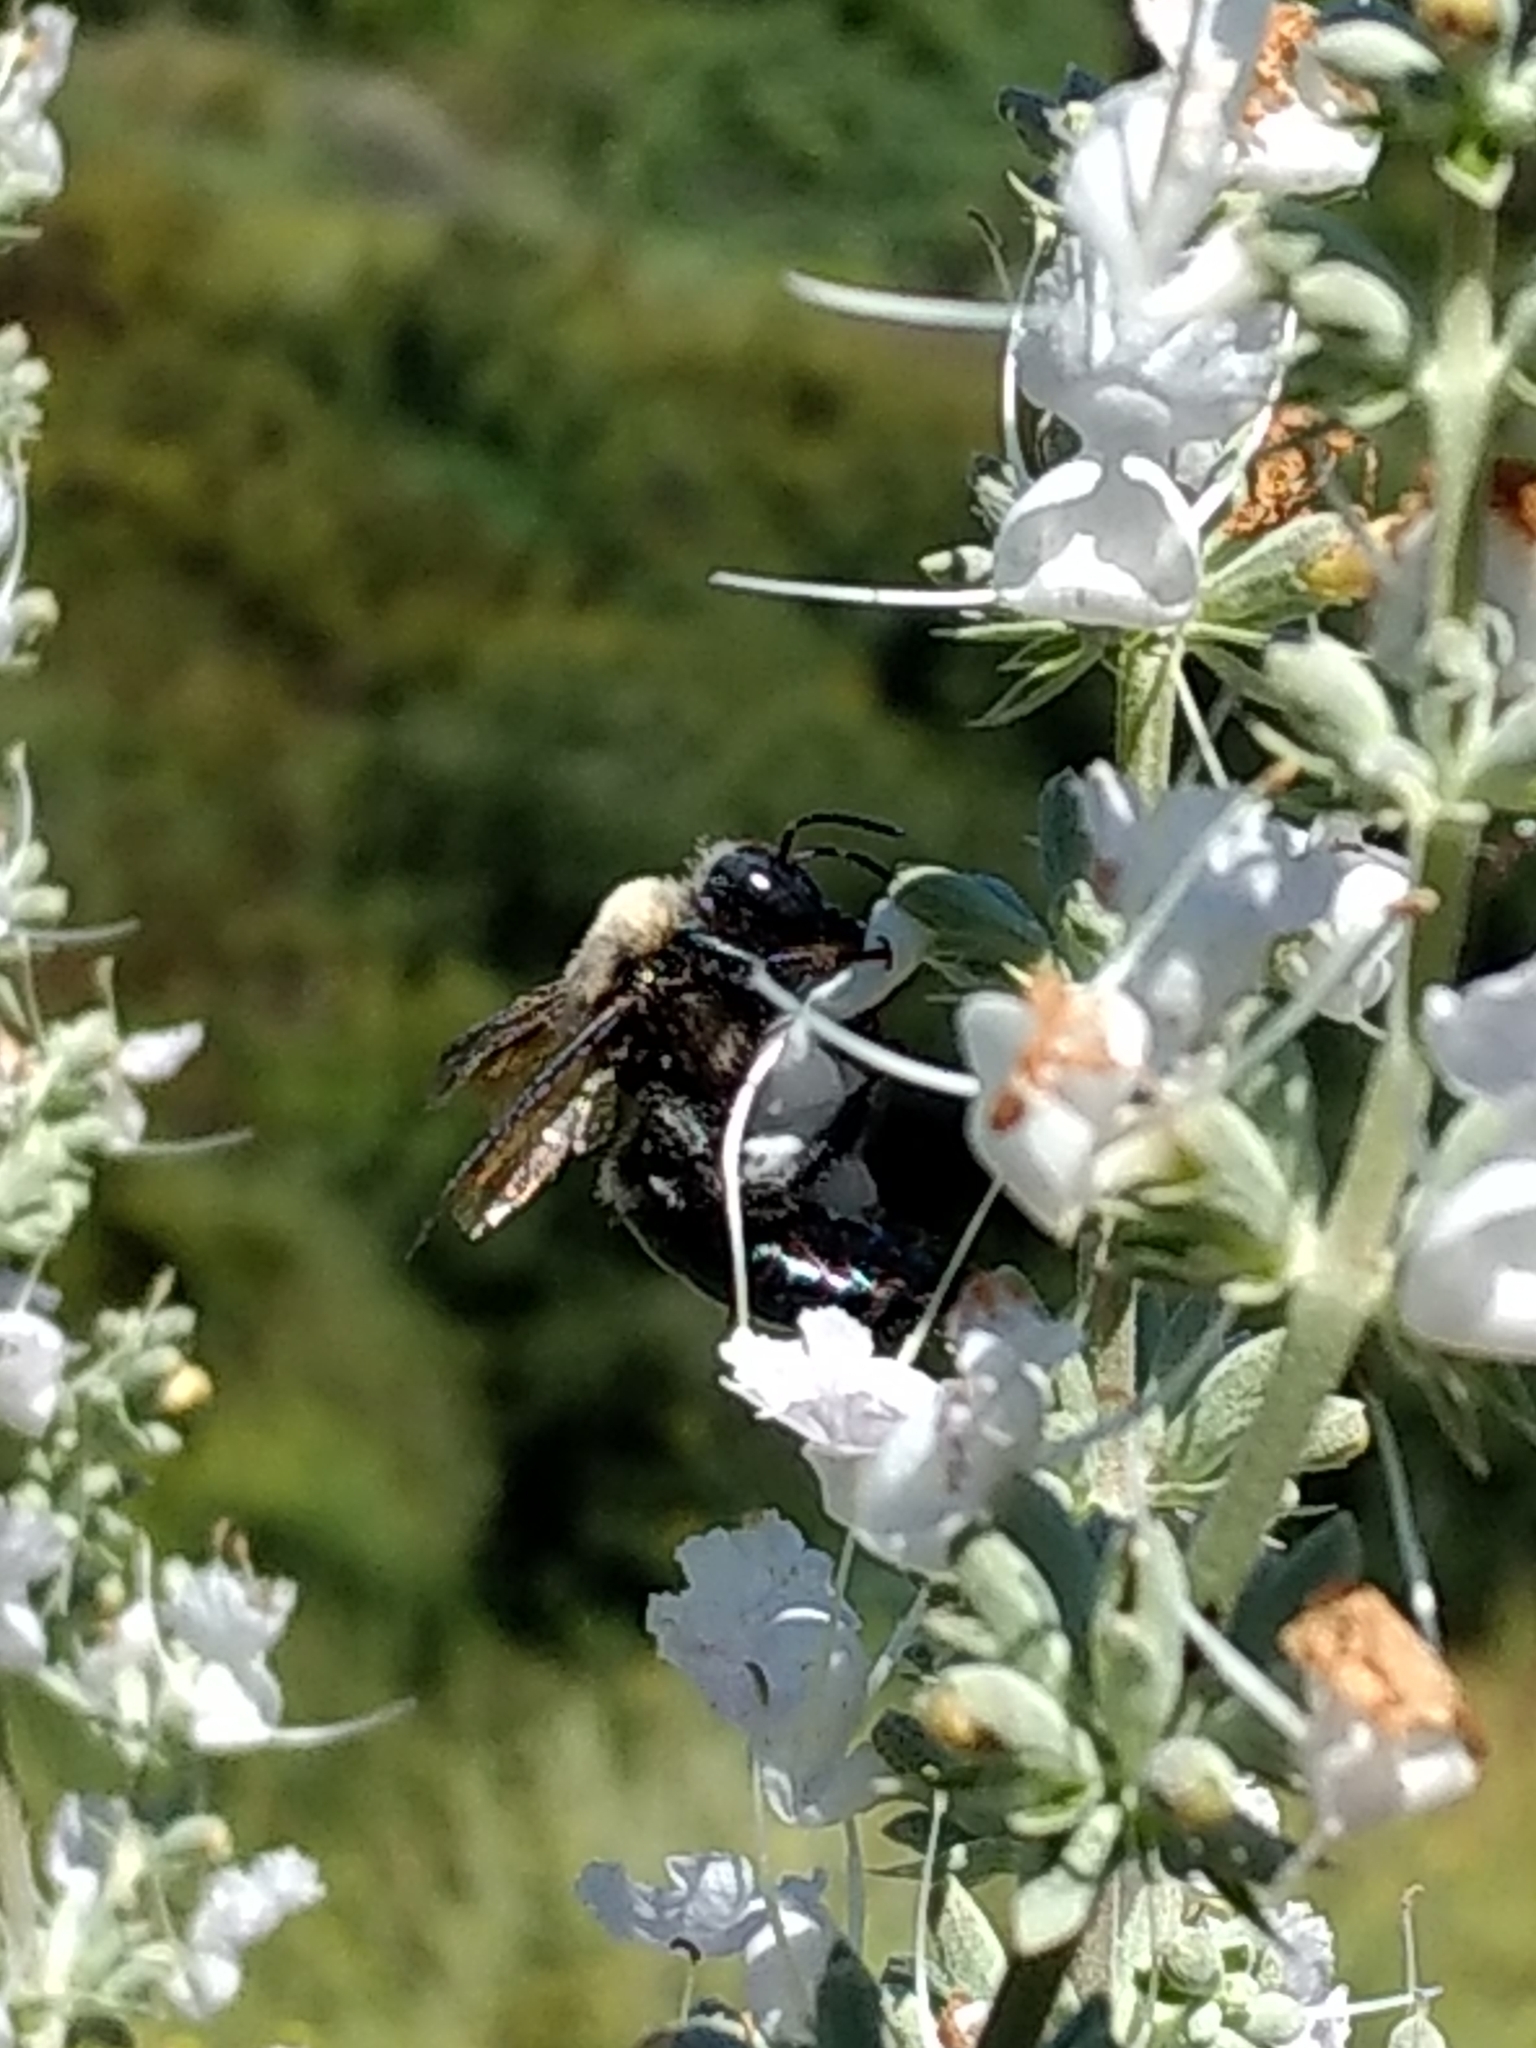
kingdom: Animalia
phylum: Arthropoda
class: Insecta
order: Hymenoptera
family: Apidae
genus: Xylocopa
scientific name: Xylocopa californica
